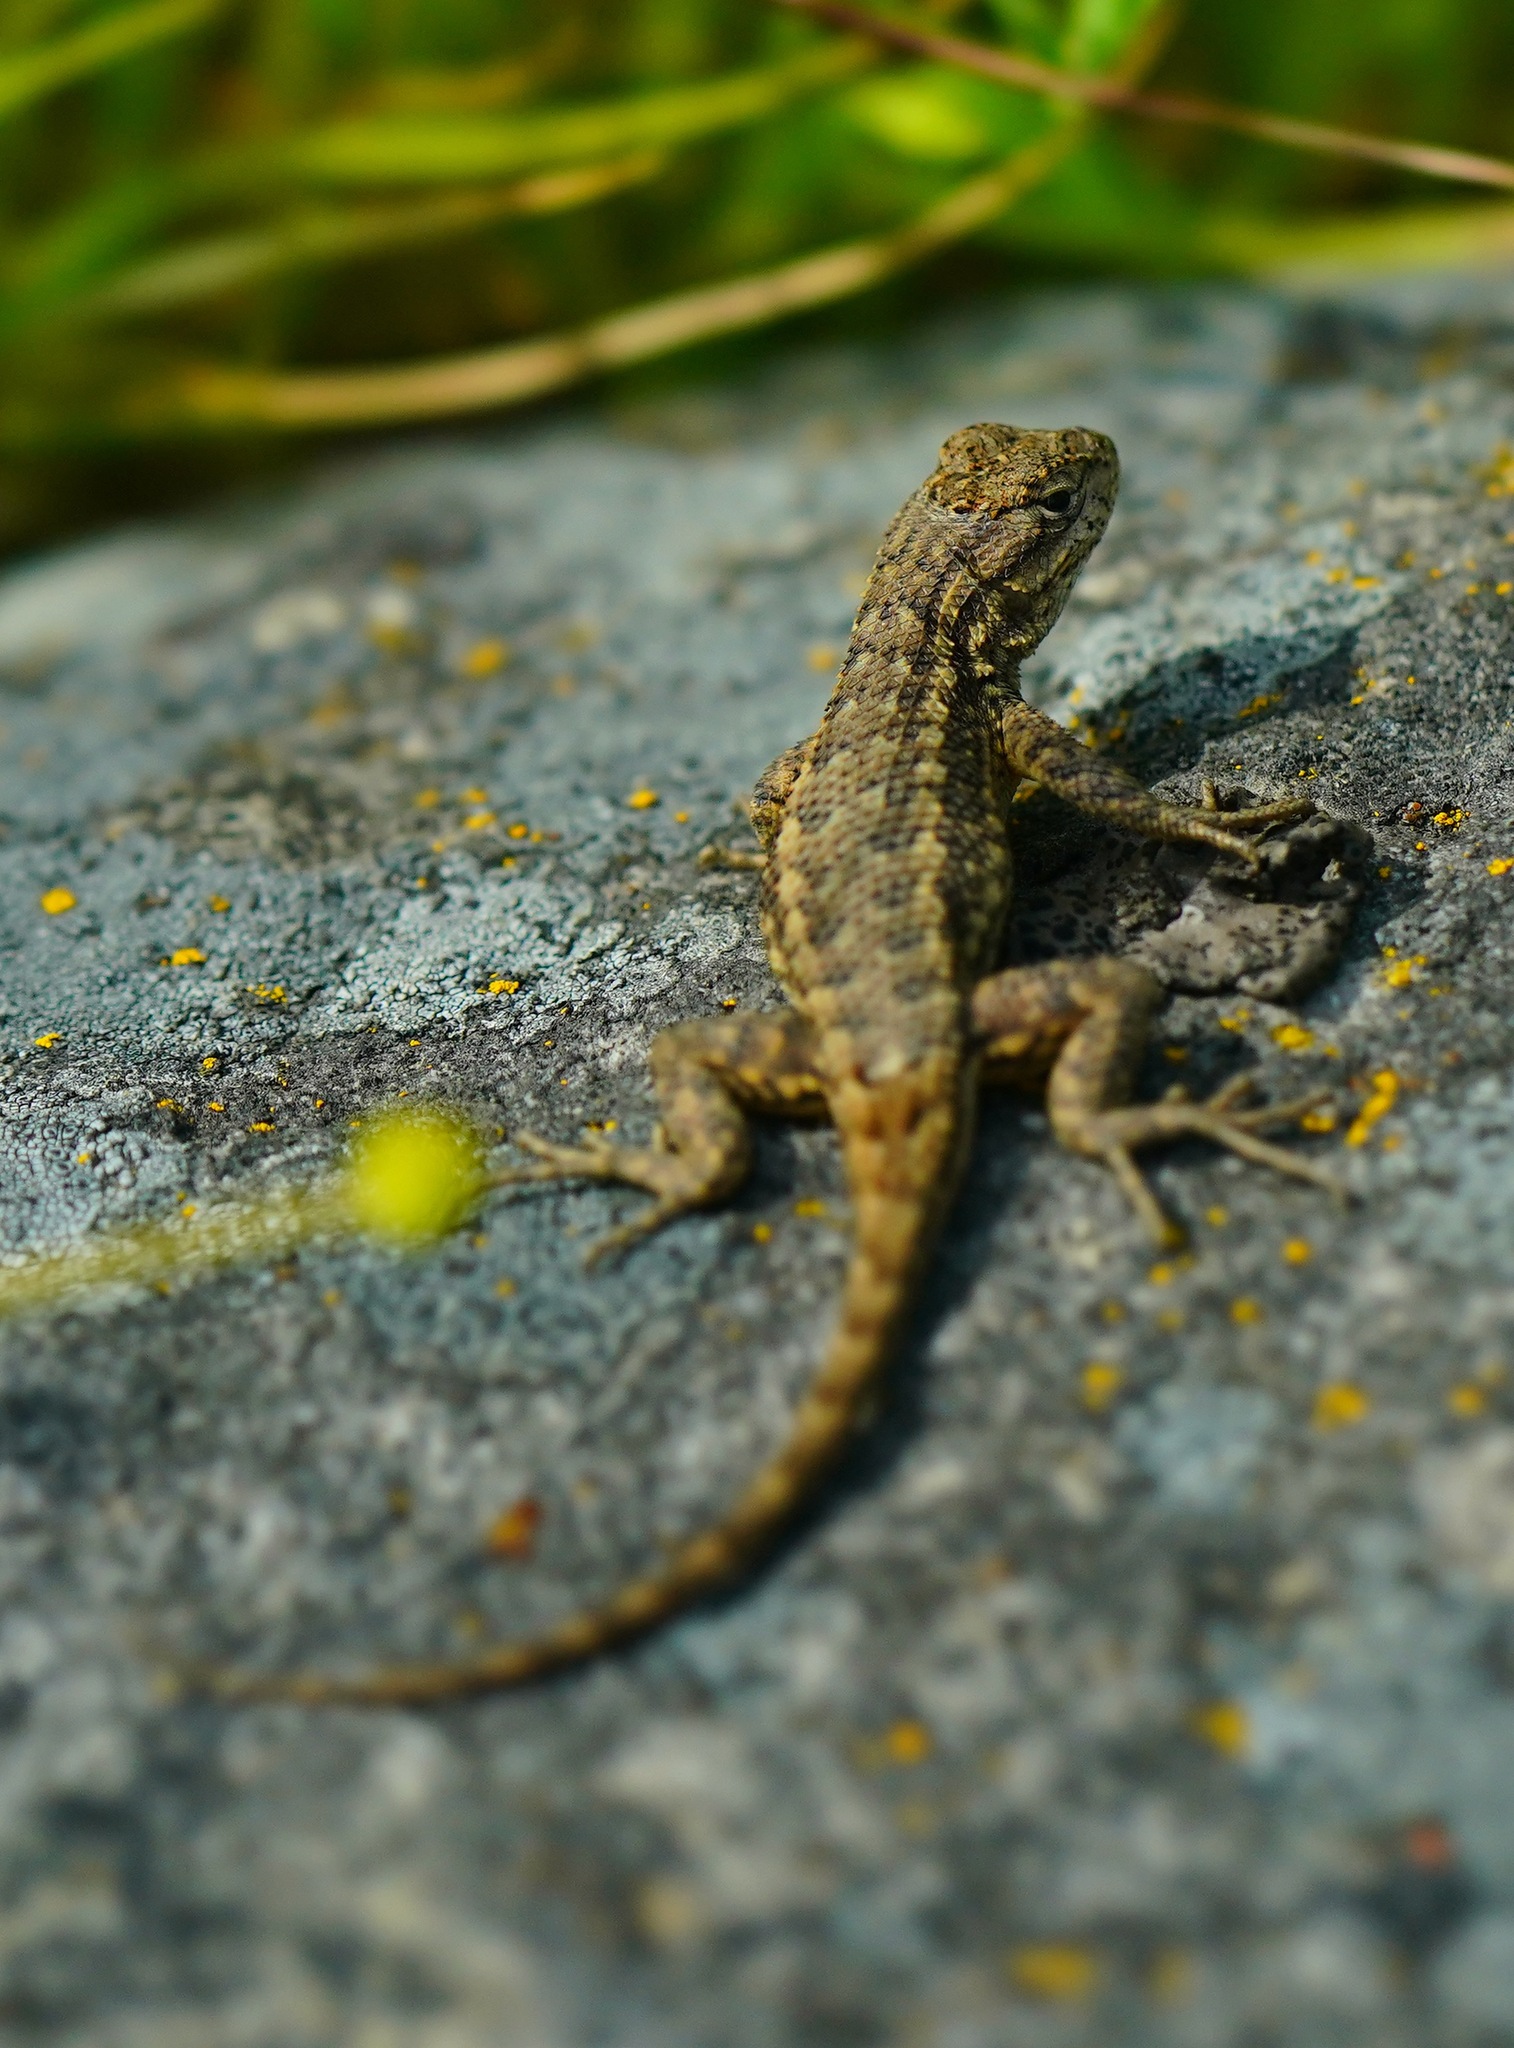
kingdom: Animalia
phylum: Chordata
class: Squamata
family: Phrynosomatidae
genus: Sceloporus
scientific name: Sceloporus occidentalis
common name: Western fence lizard
